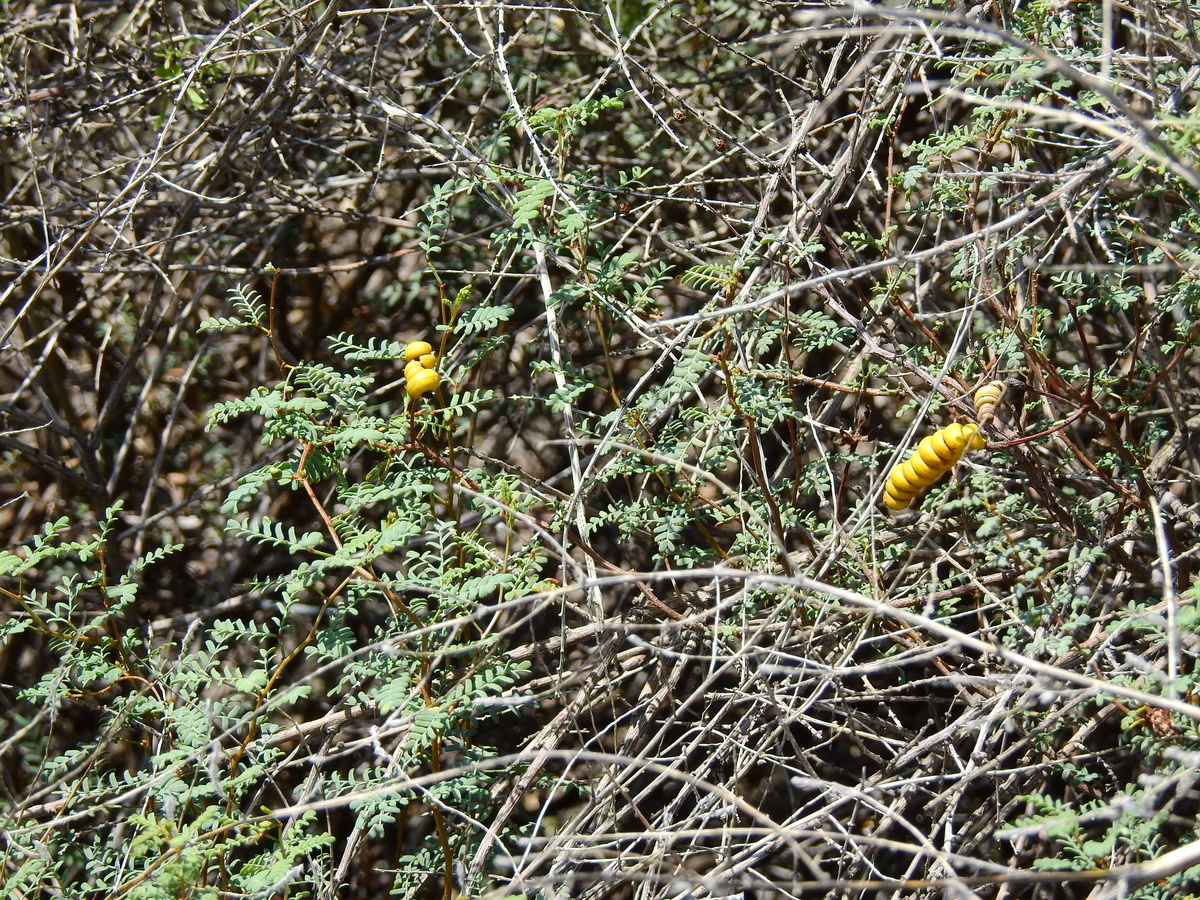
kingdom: Plantae
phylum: Tracheophyta
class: Magnoliopsida
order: Fabales
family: Fabaceae
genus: Prosopis
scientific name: Prosopis strombulifera
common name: Creeping mesquite
